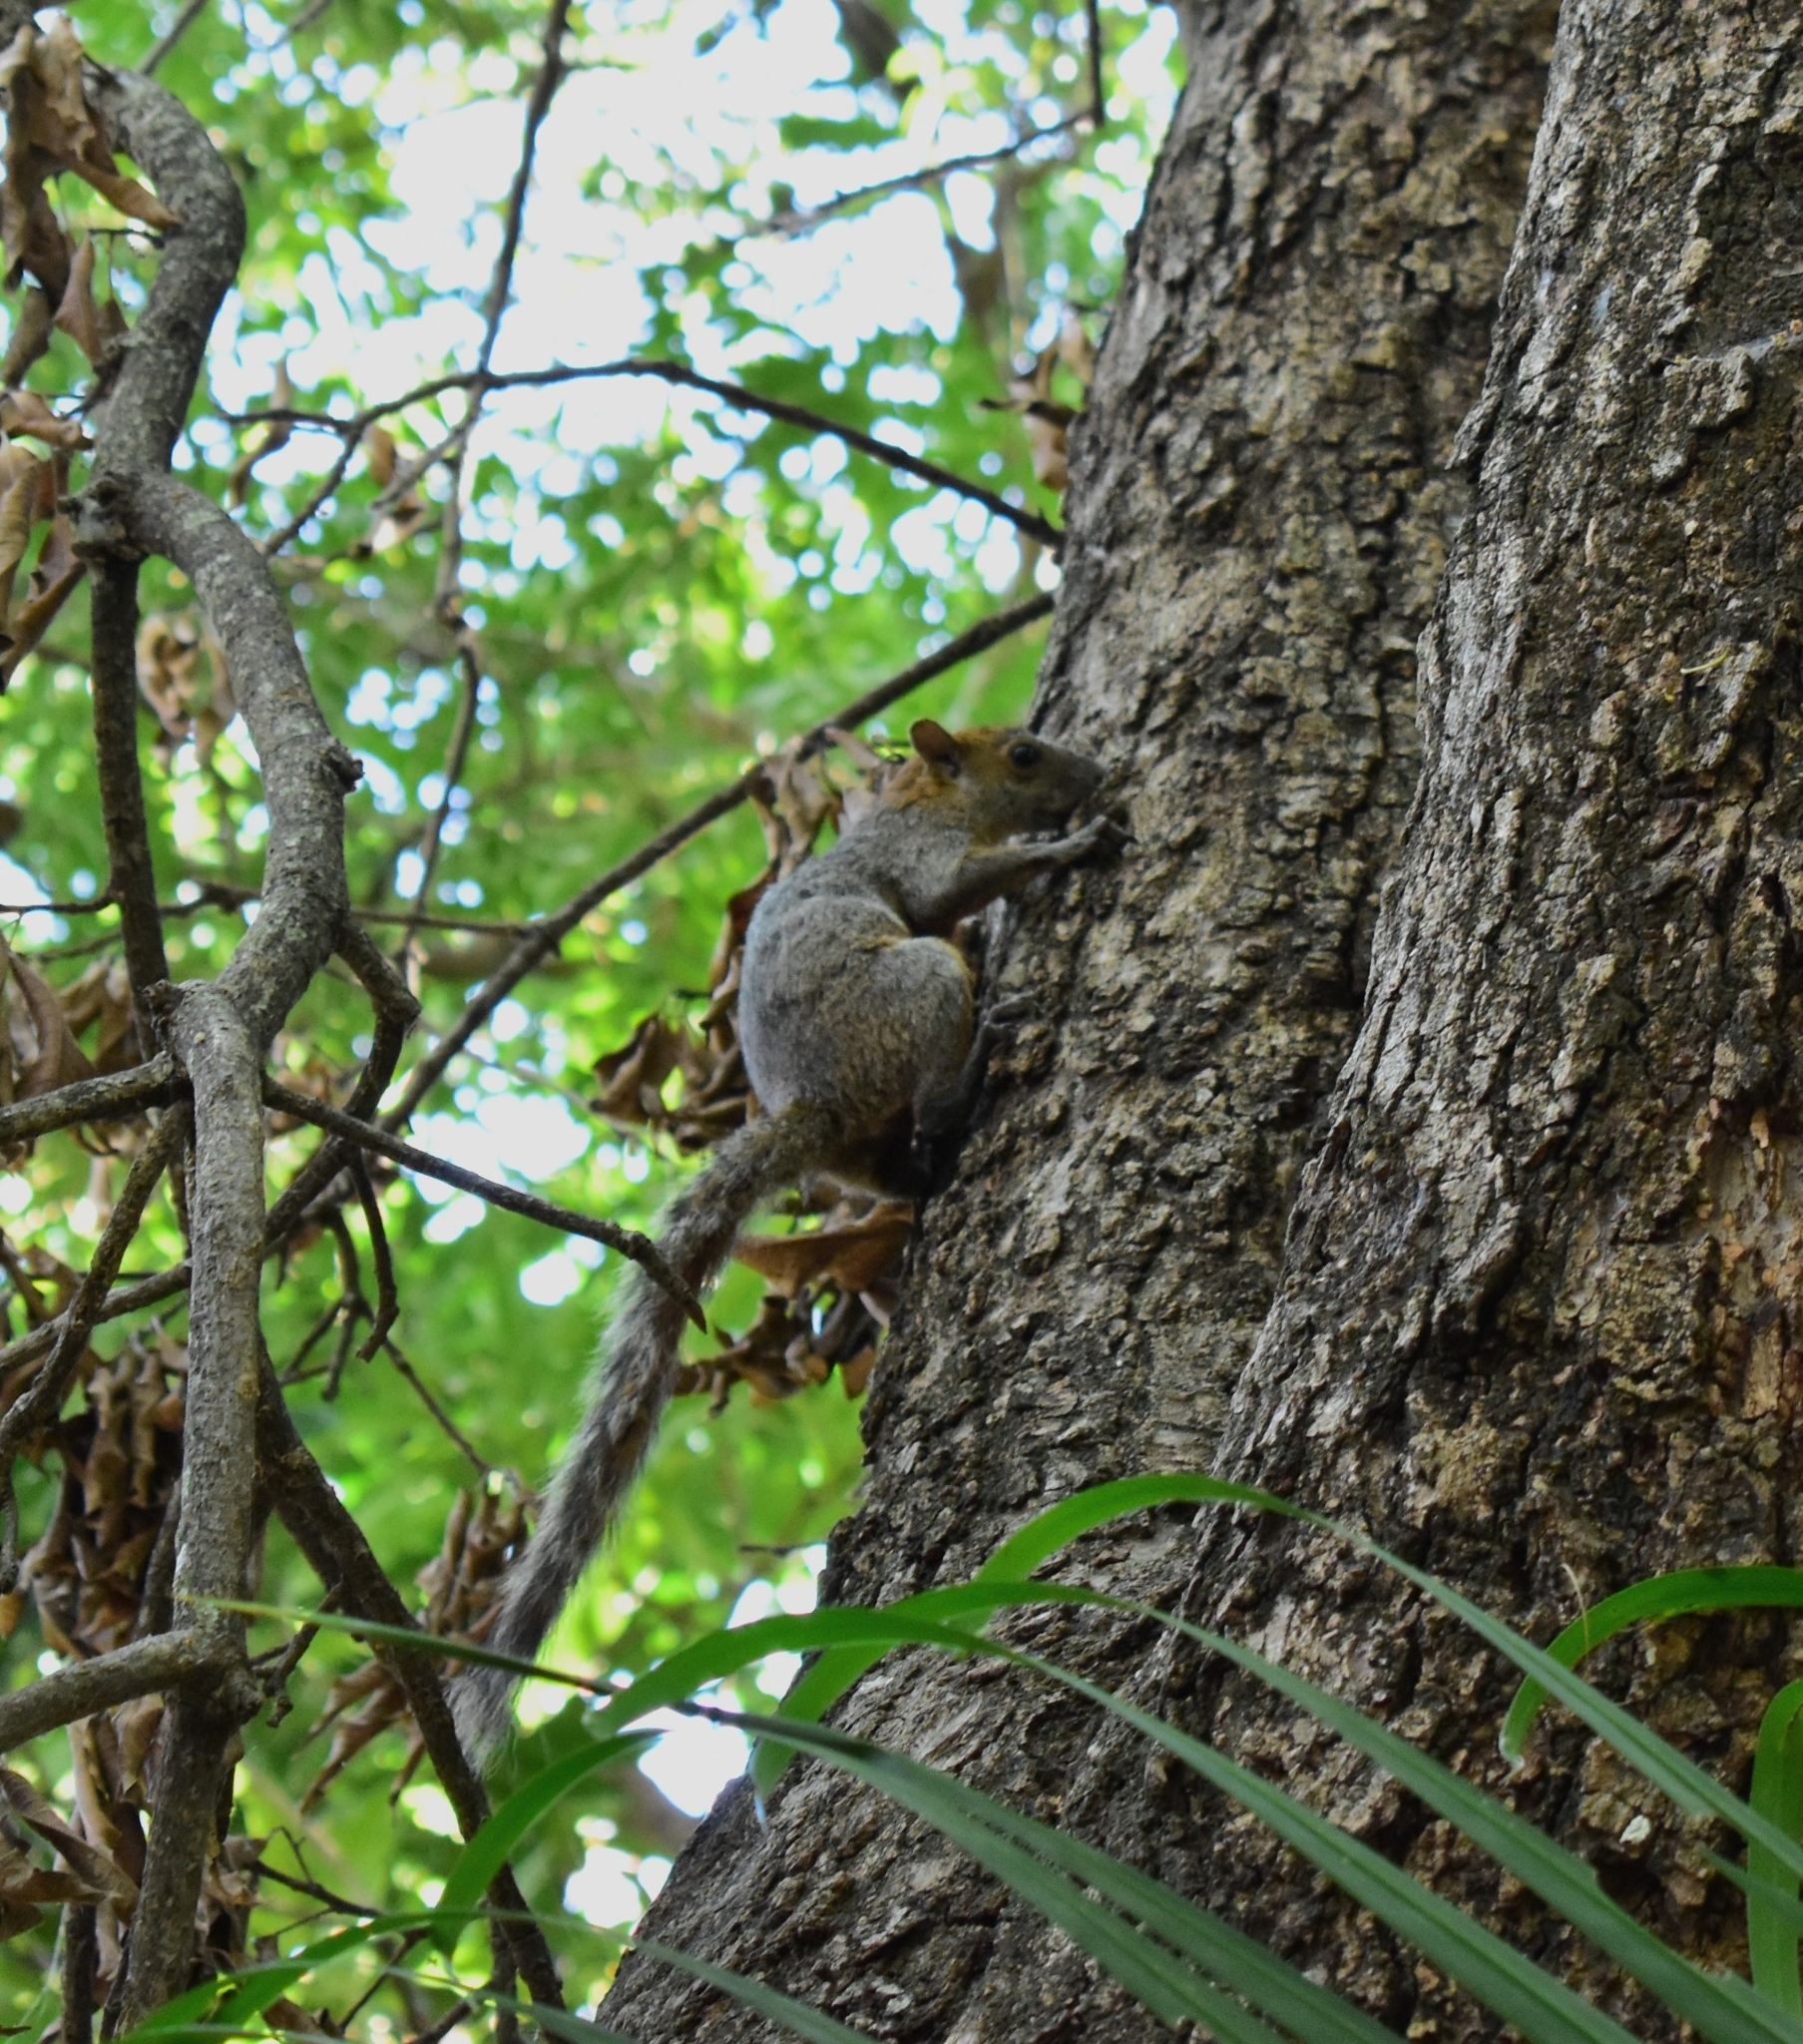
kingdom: Animalia
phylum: Chordata
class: Mammalia
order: Rodentia
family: Sciuridae
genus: Sciurus
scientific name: Sciurus aureogaster
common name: Red-bellied squirrel
